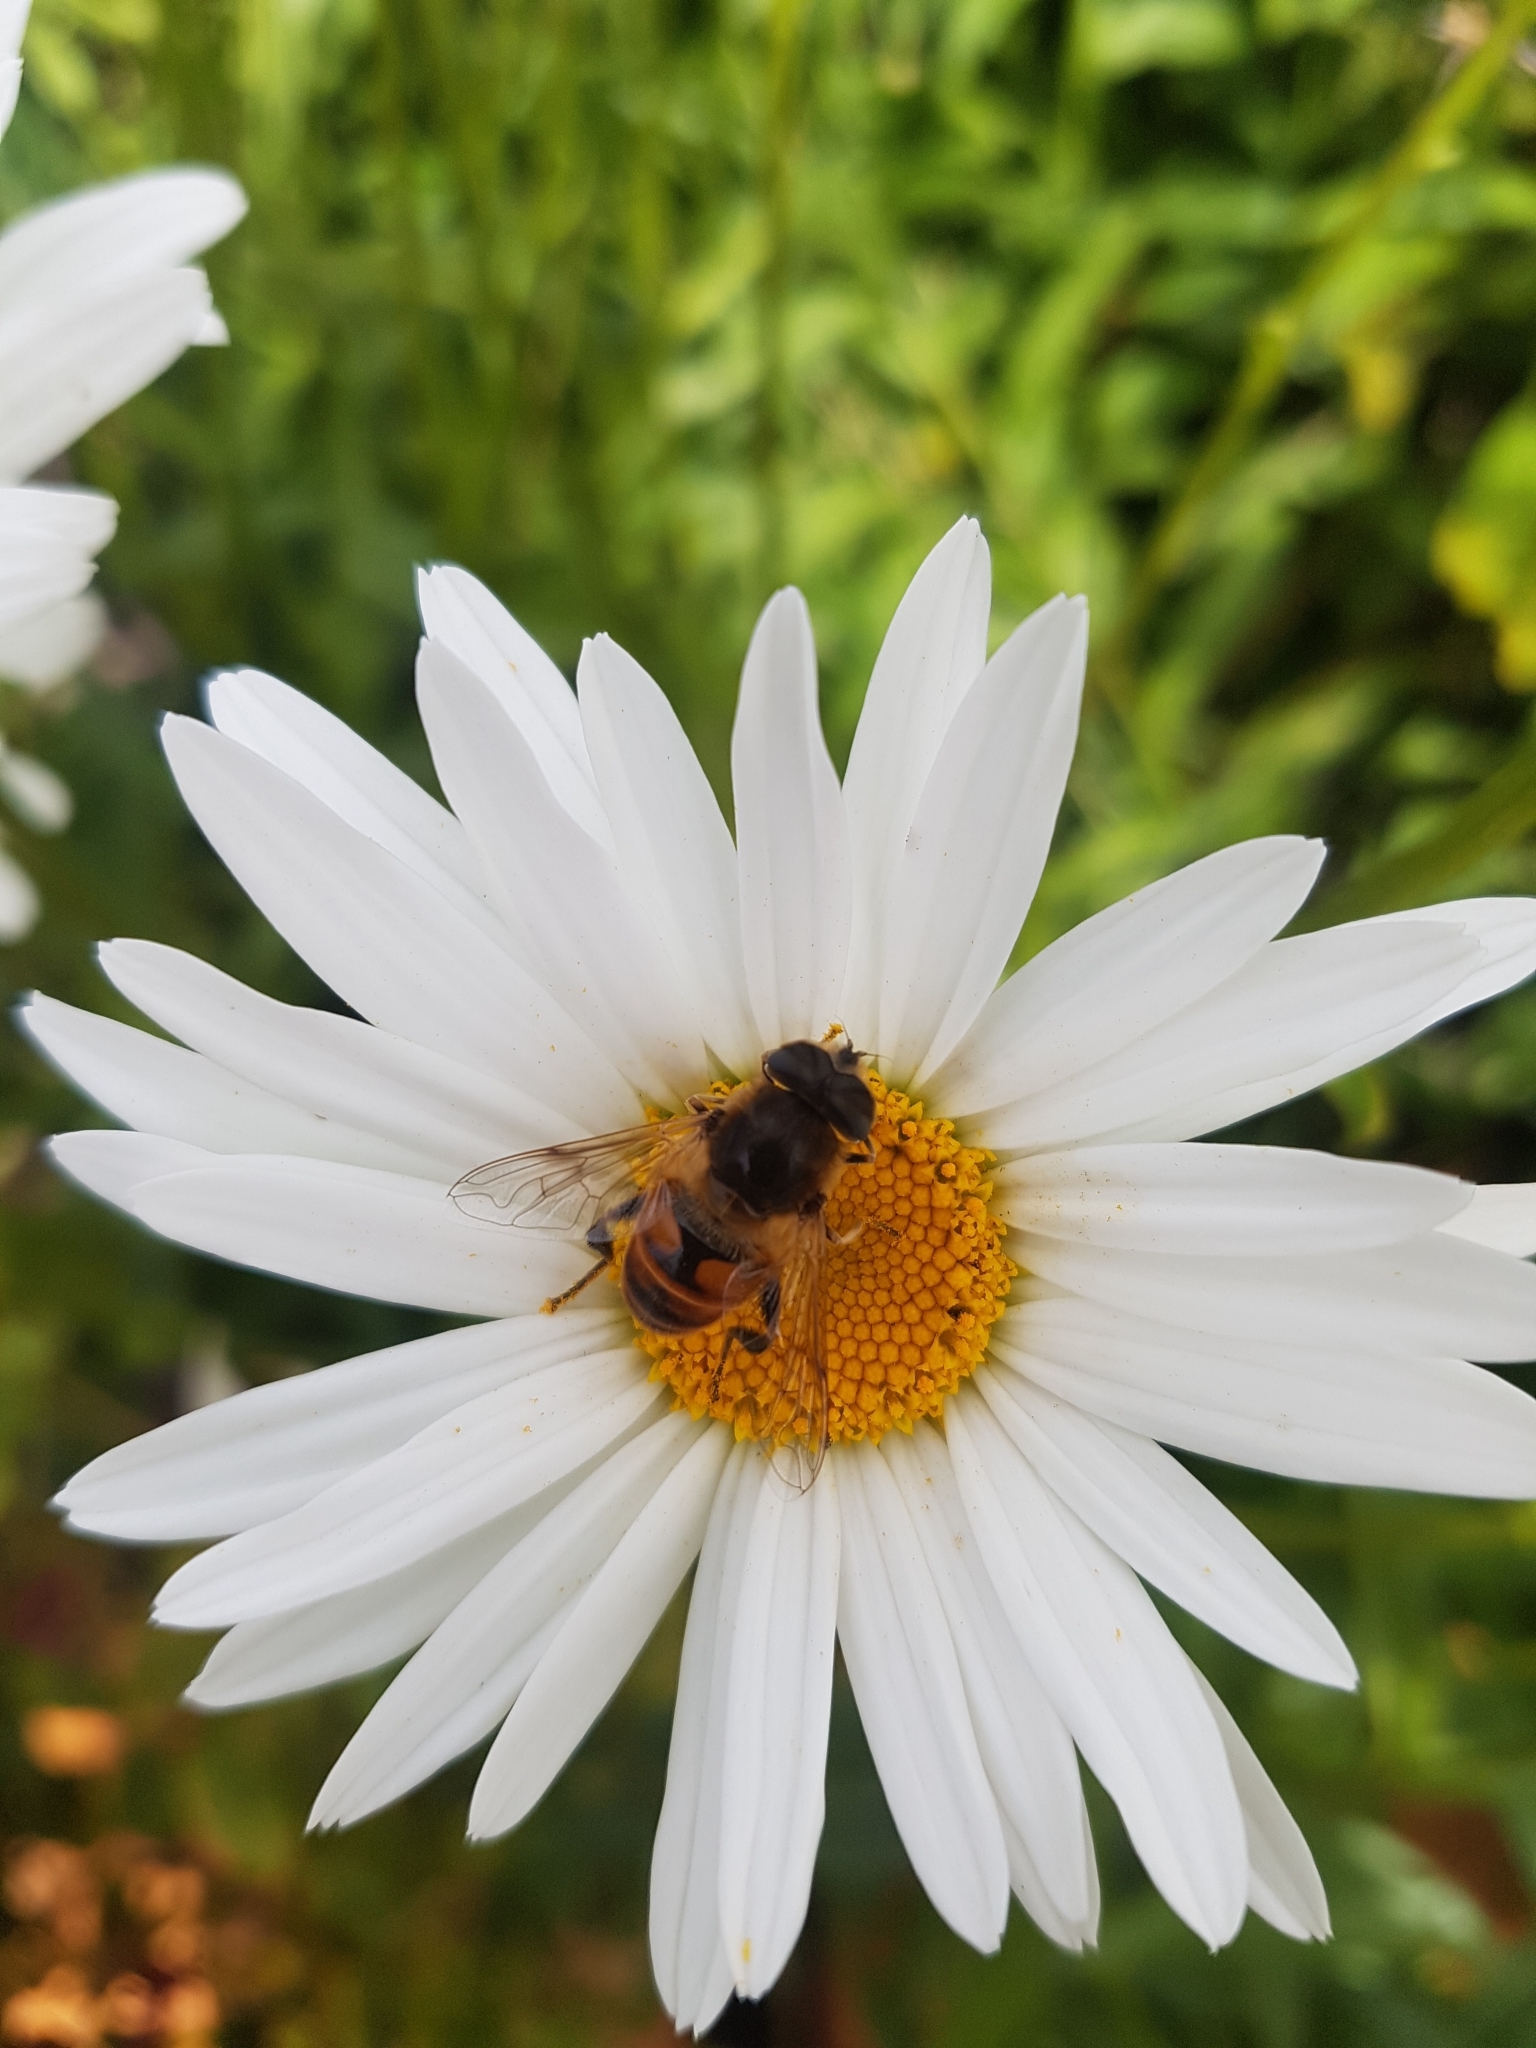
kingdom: Animalia
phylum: Arthropoda
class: Insecta
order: Diptera
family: Syrphidae
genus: Eristalis
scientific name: Eristalis tenax
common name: Drone fly
